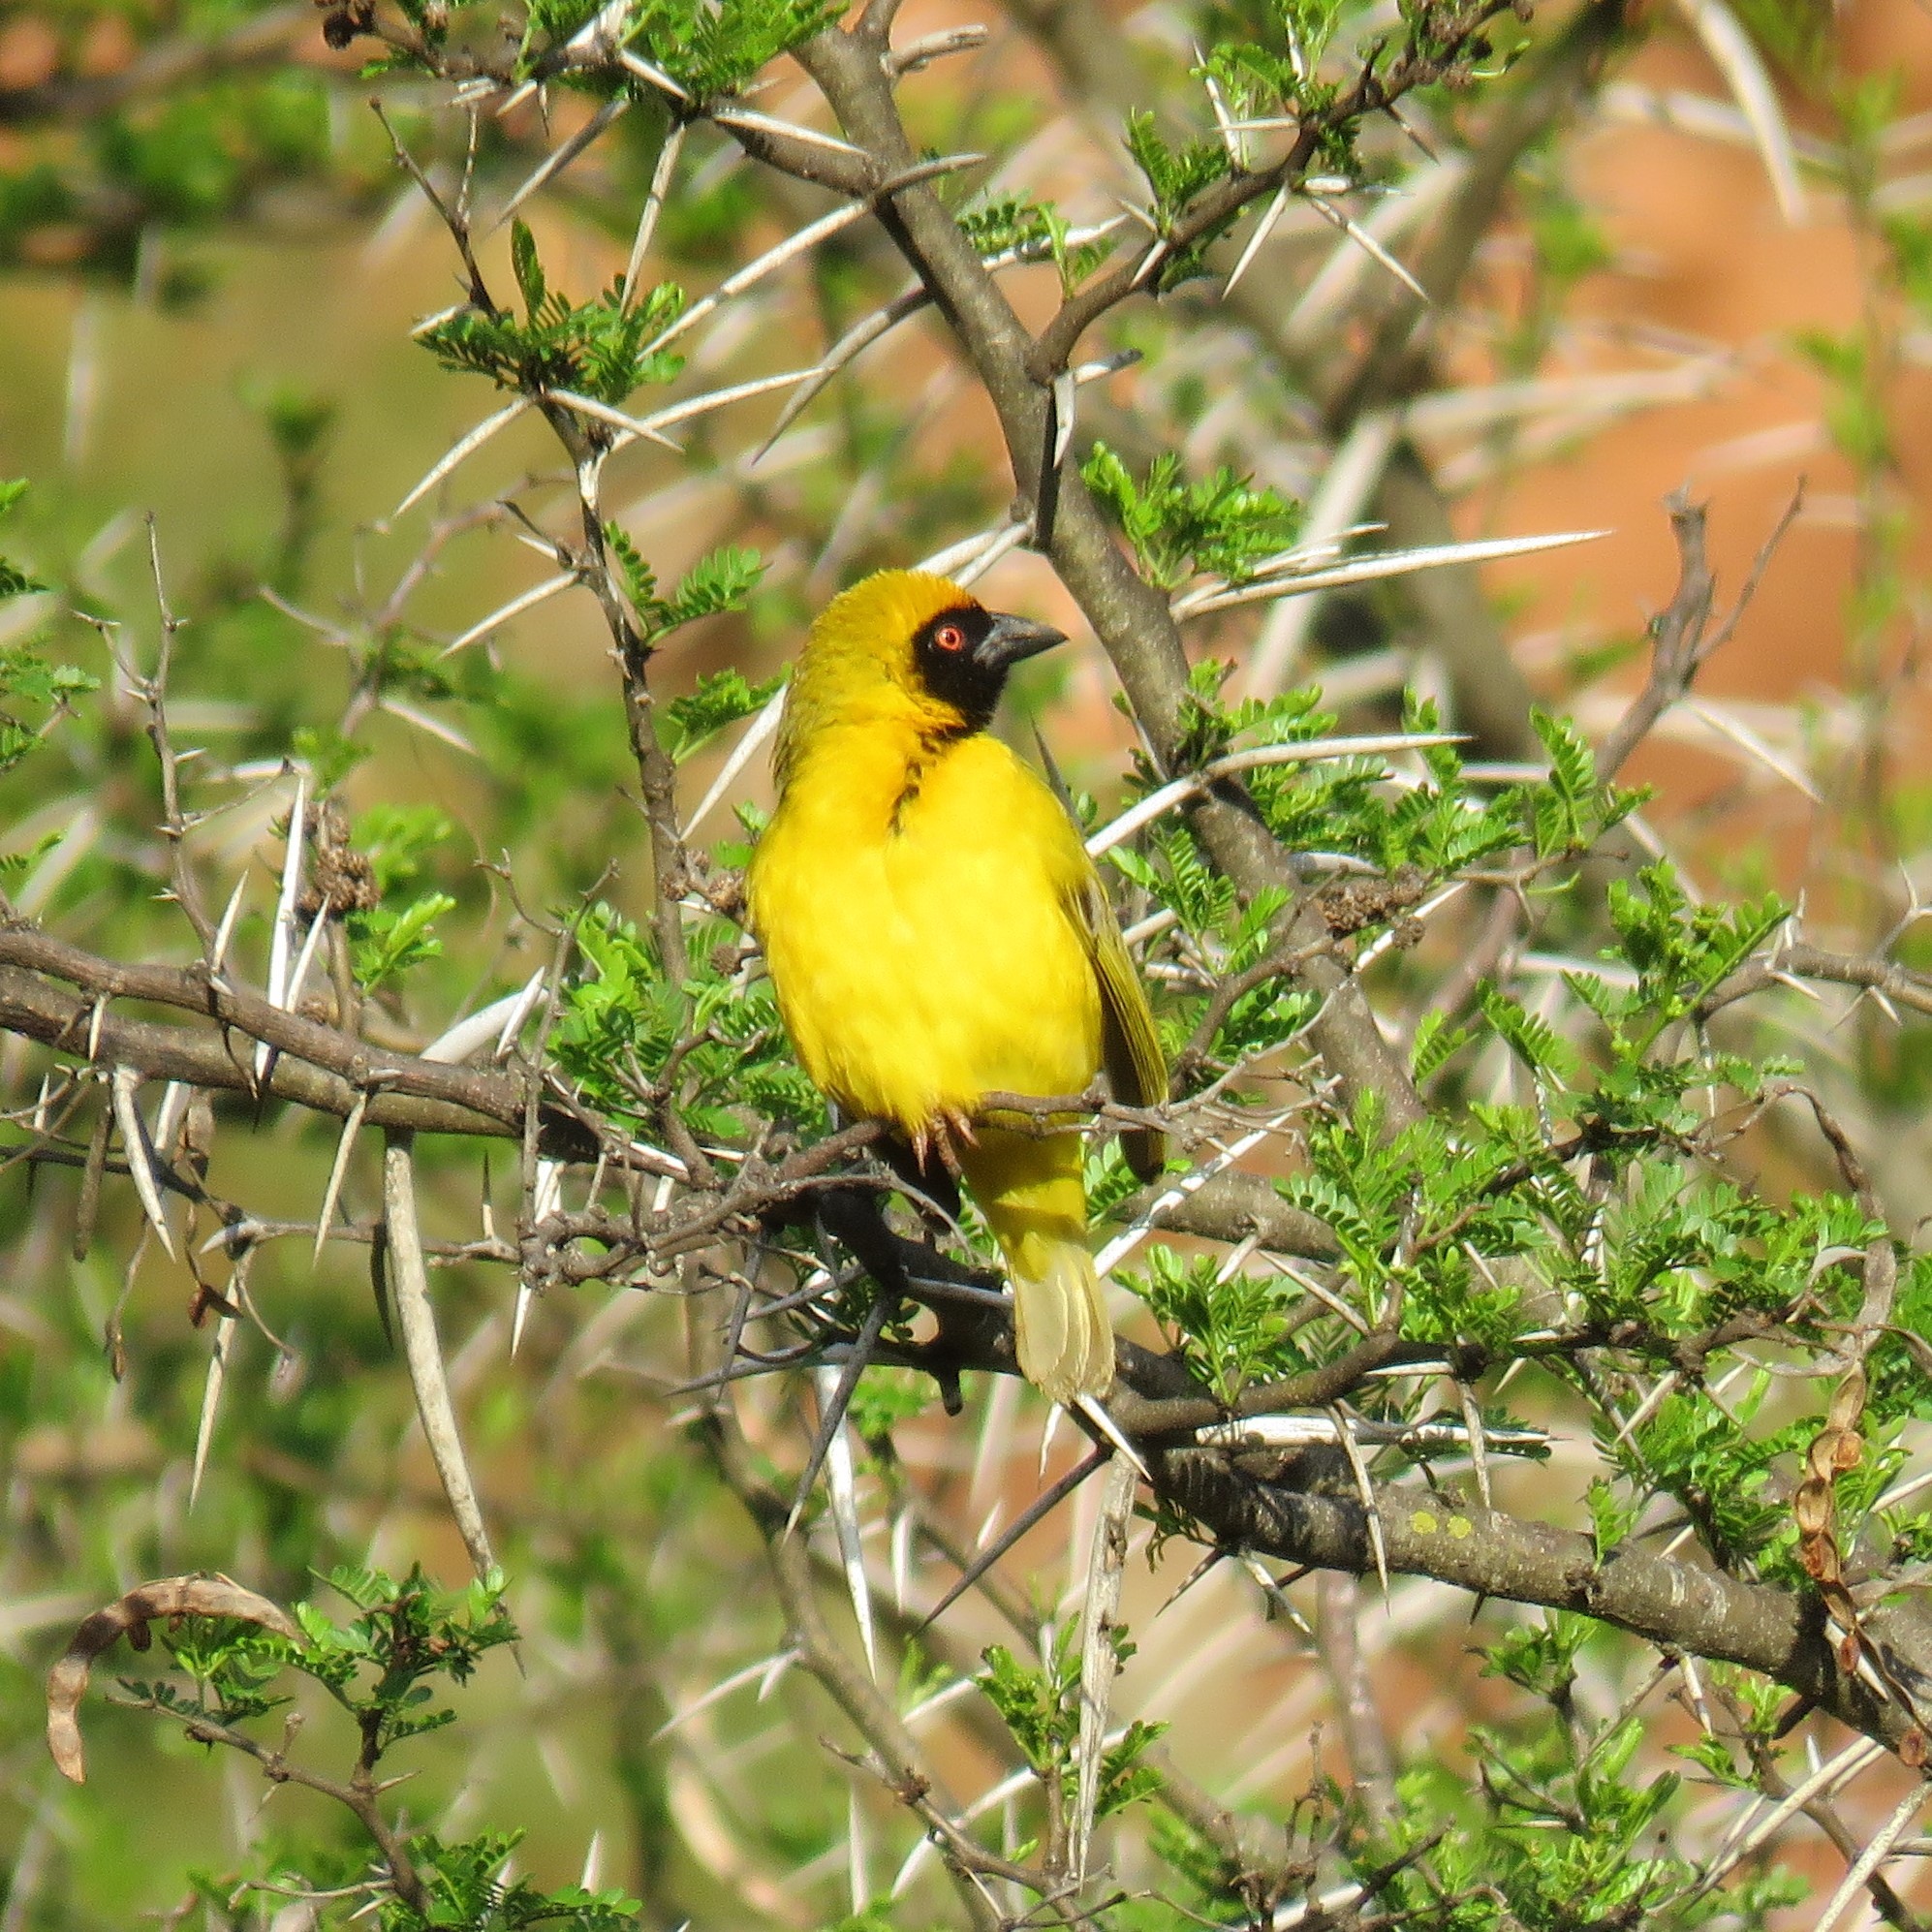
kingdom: Animalia
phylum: Chordata
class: Aves
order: Passeriformes
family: Ploceidae
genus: Ploceus
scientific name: Ploceus velatus
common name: Southern masked weaver
